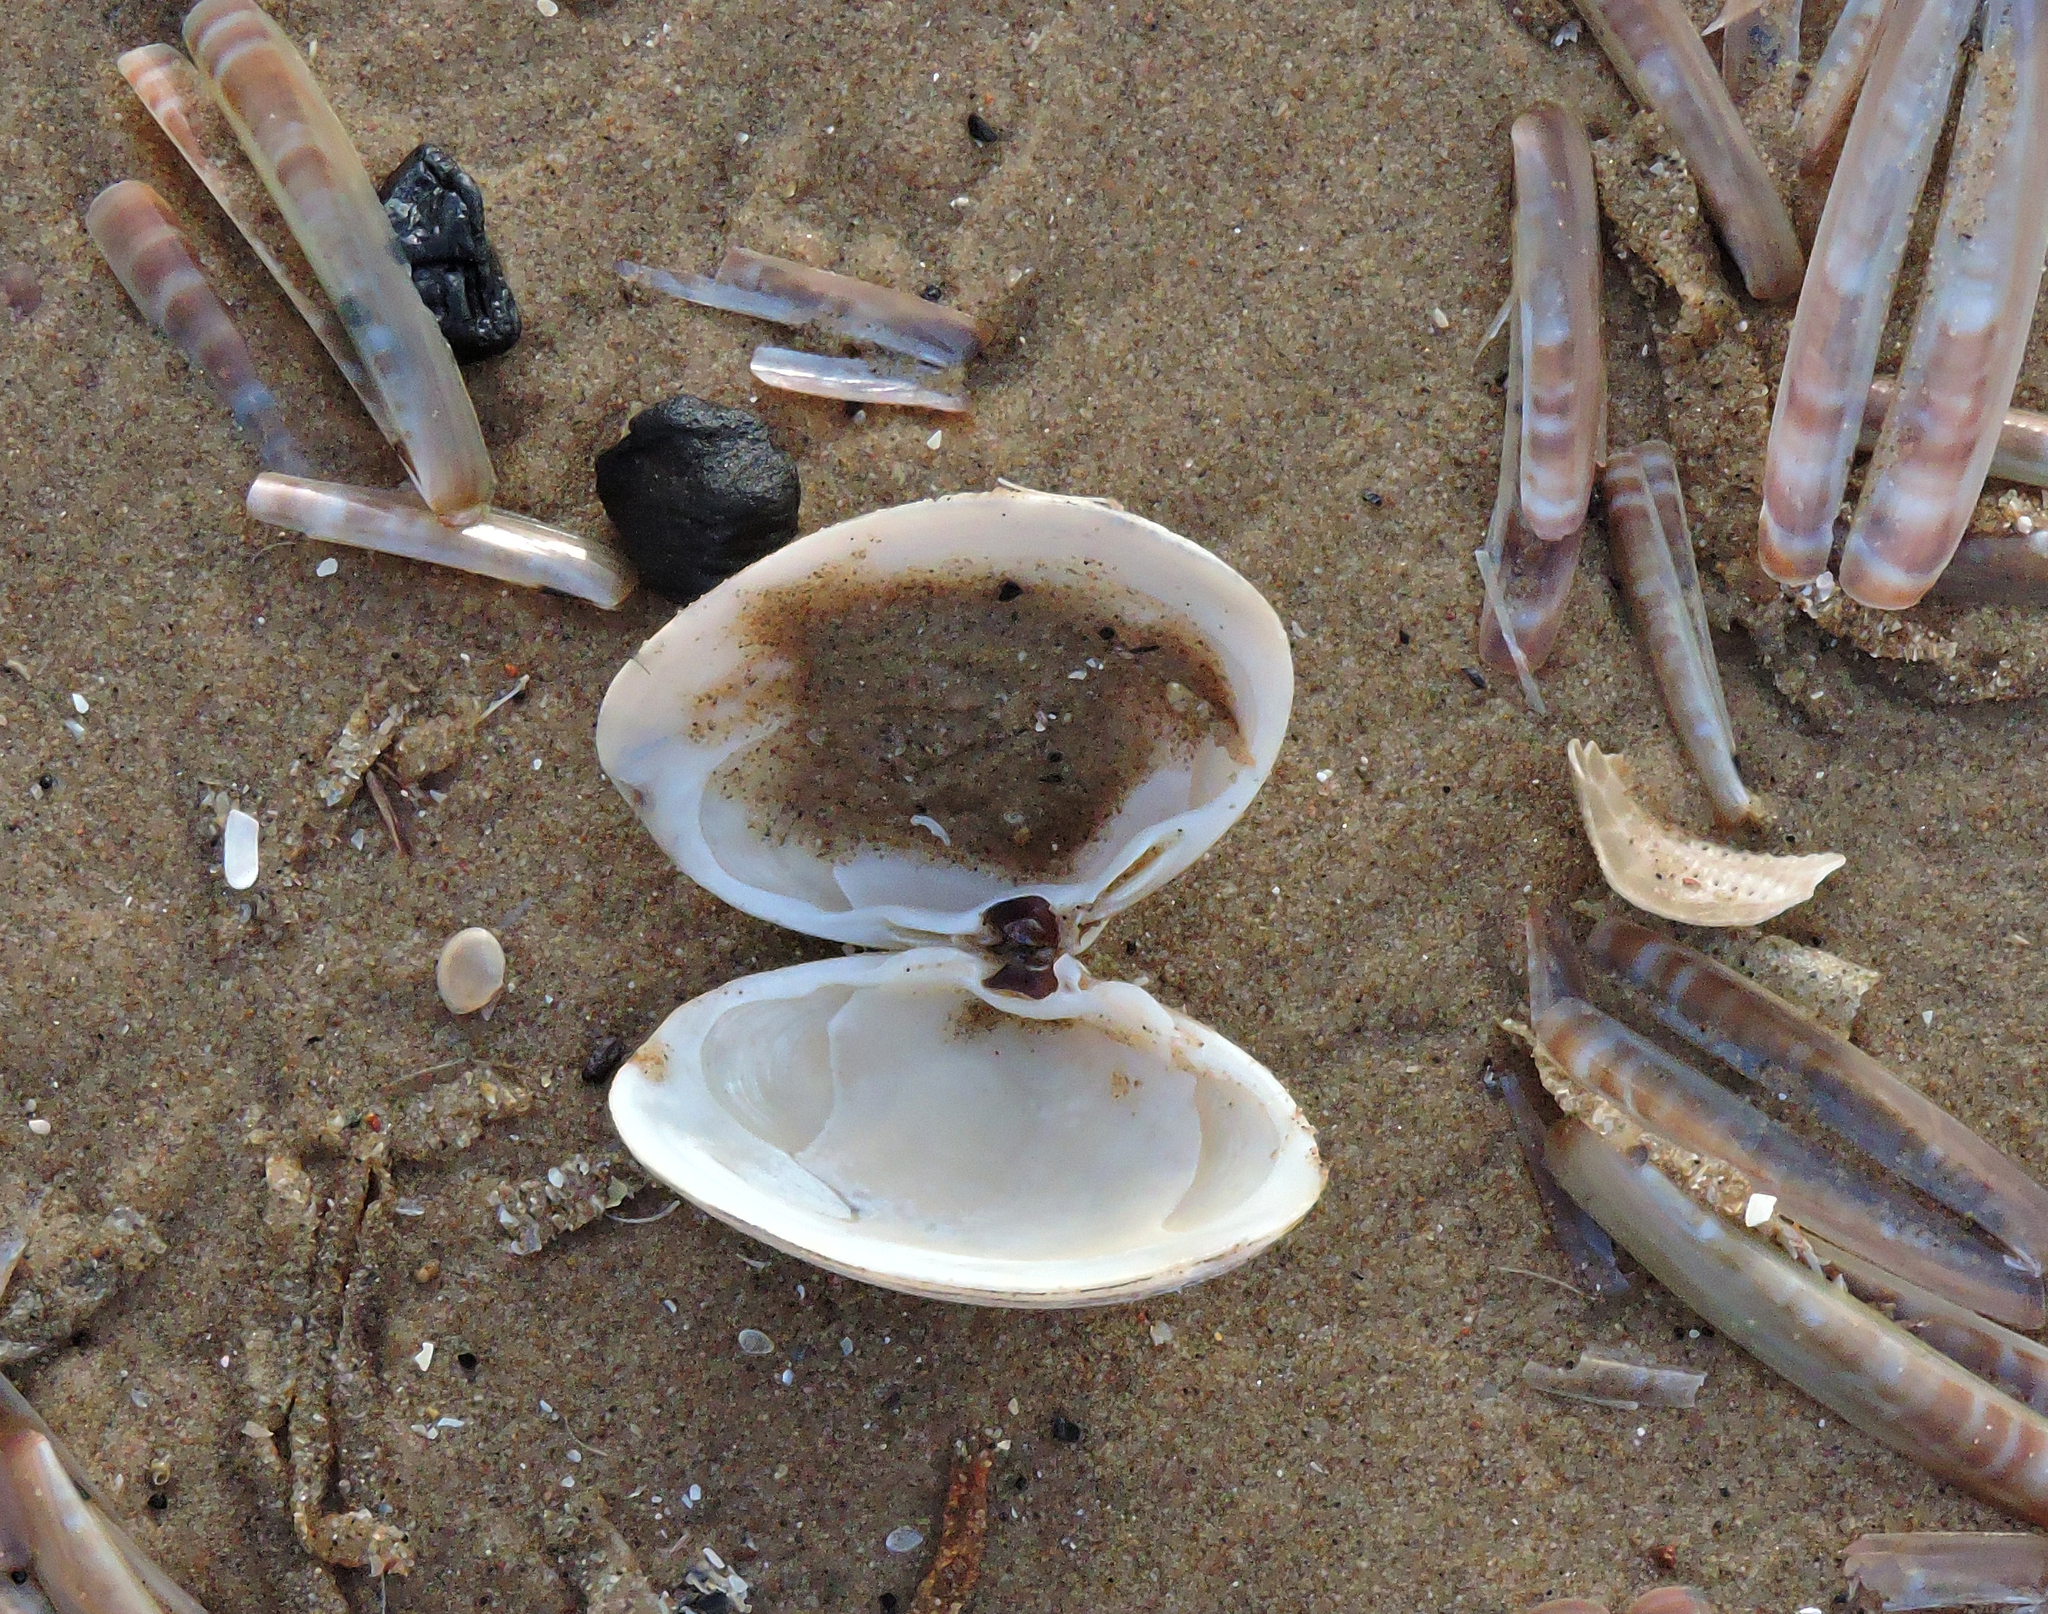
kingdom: Animalia
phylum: Mollusca
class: Bivalvia
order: Venerida
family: Mactridae
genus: Spisula
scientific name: Spisula solida
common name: Thick trough shell
